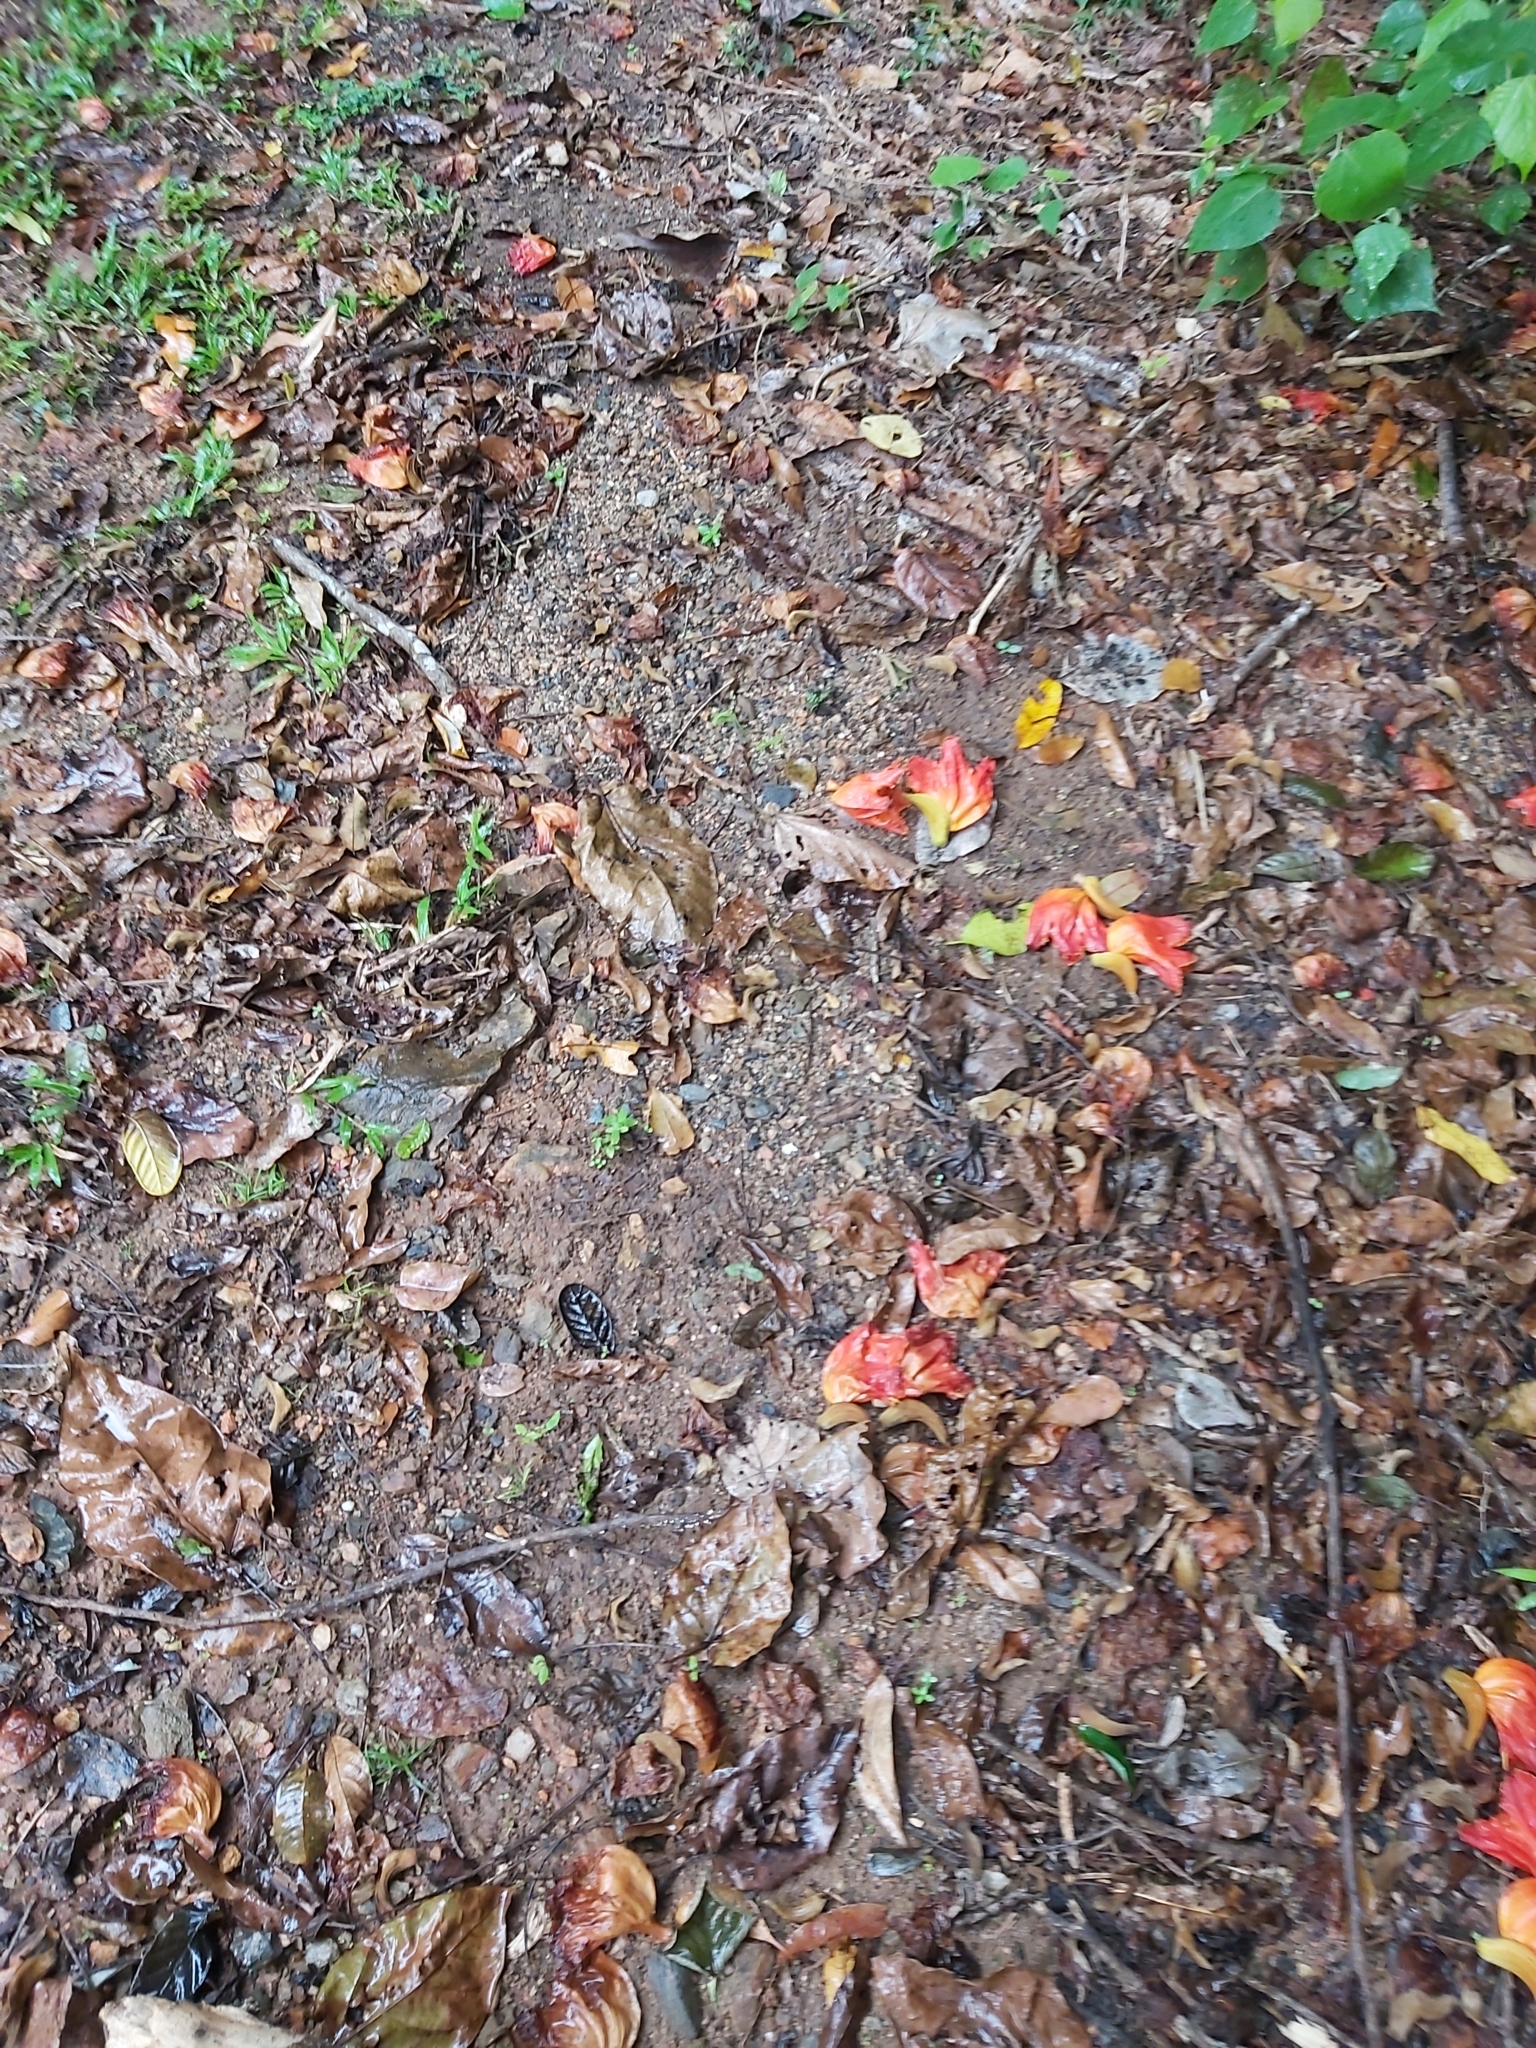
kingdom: Plantae
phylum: Tracheophyta
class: Magnoliopsida
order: Lamiales
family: Bignoniaceae
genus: Spathodea
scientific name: Spathodea campanulata
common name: African tuliptree
